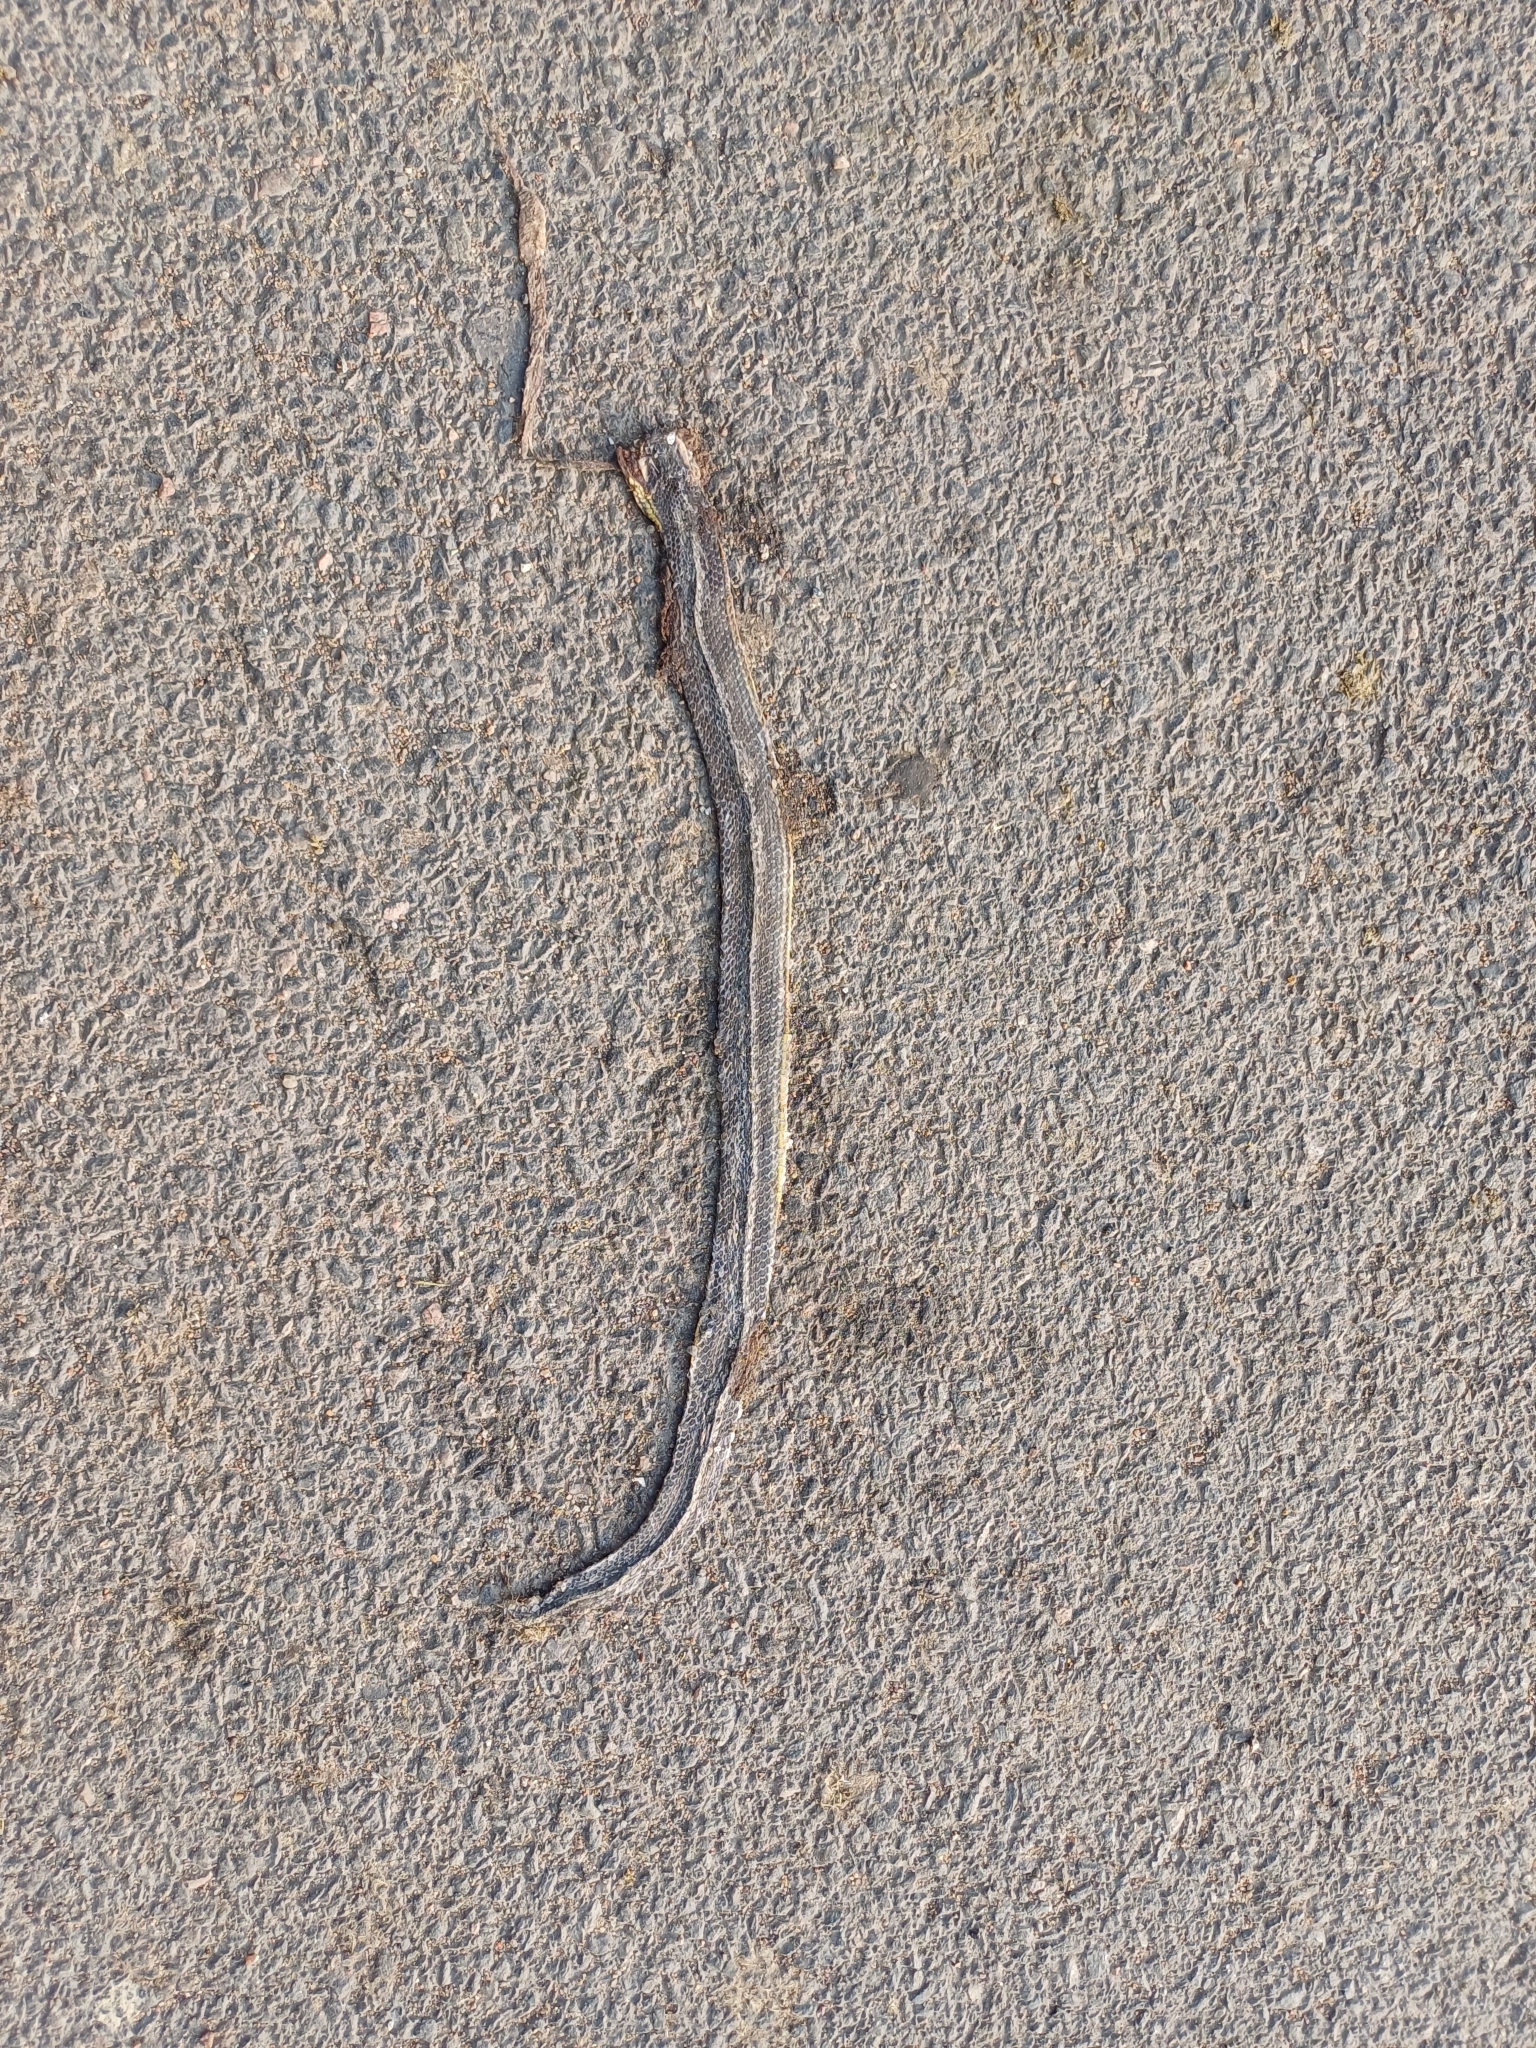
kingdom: Animalia
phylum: Chordata
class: Squamata
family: Colubridae
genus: Atretium
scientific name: Atretium schistosum
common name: Olive keelback wart snake
